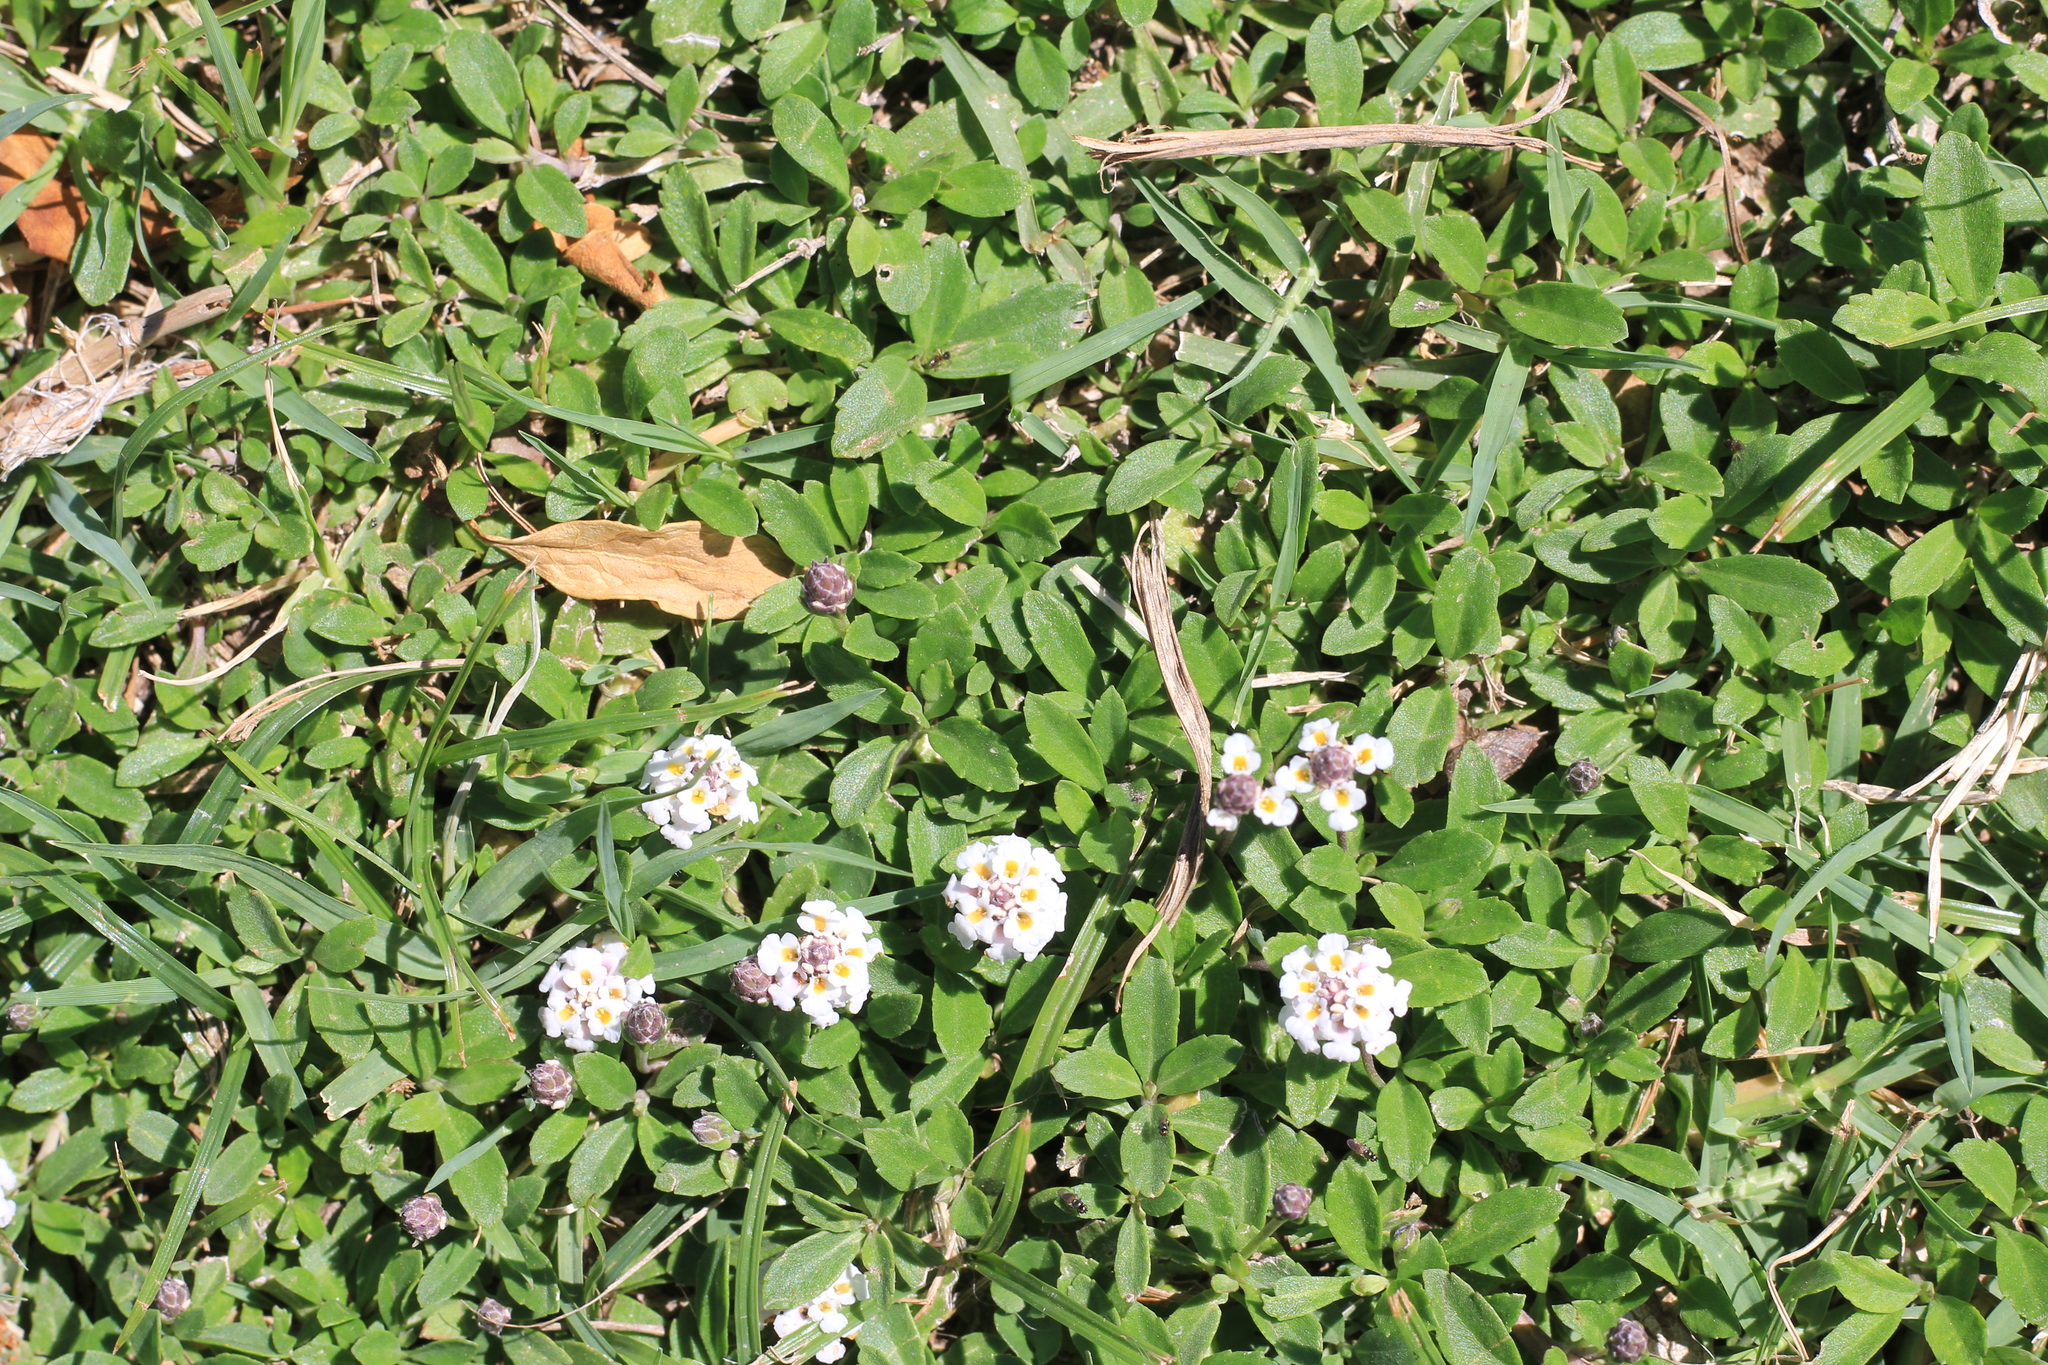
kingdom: Plantae
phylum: Tracheophyta
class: Magnoliopsida
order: Lamiales
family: Verbenaceae
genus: Phyla
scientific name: Phyla nodiflora
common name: Frogfruit
